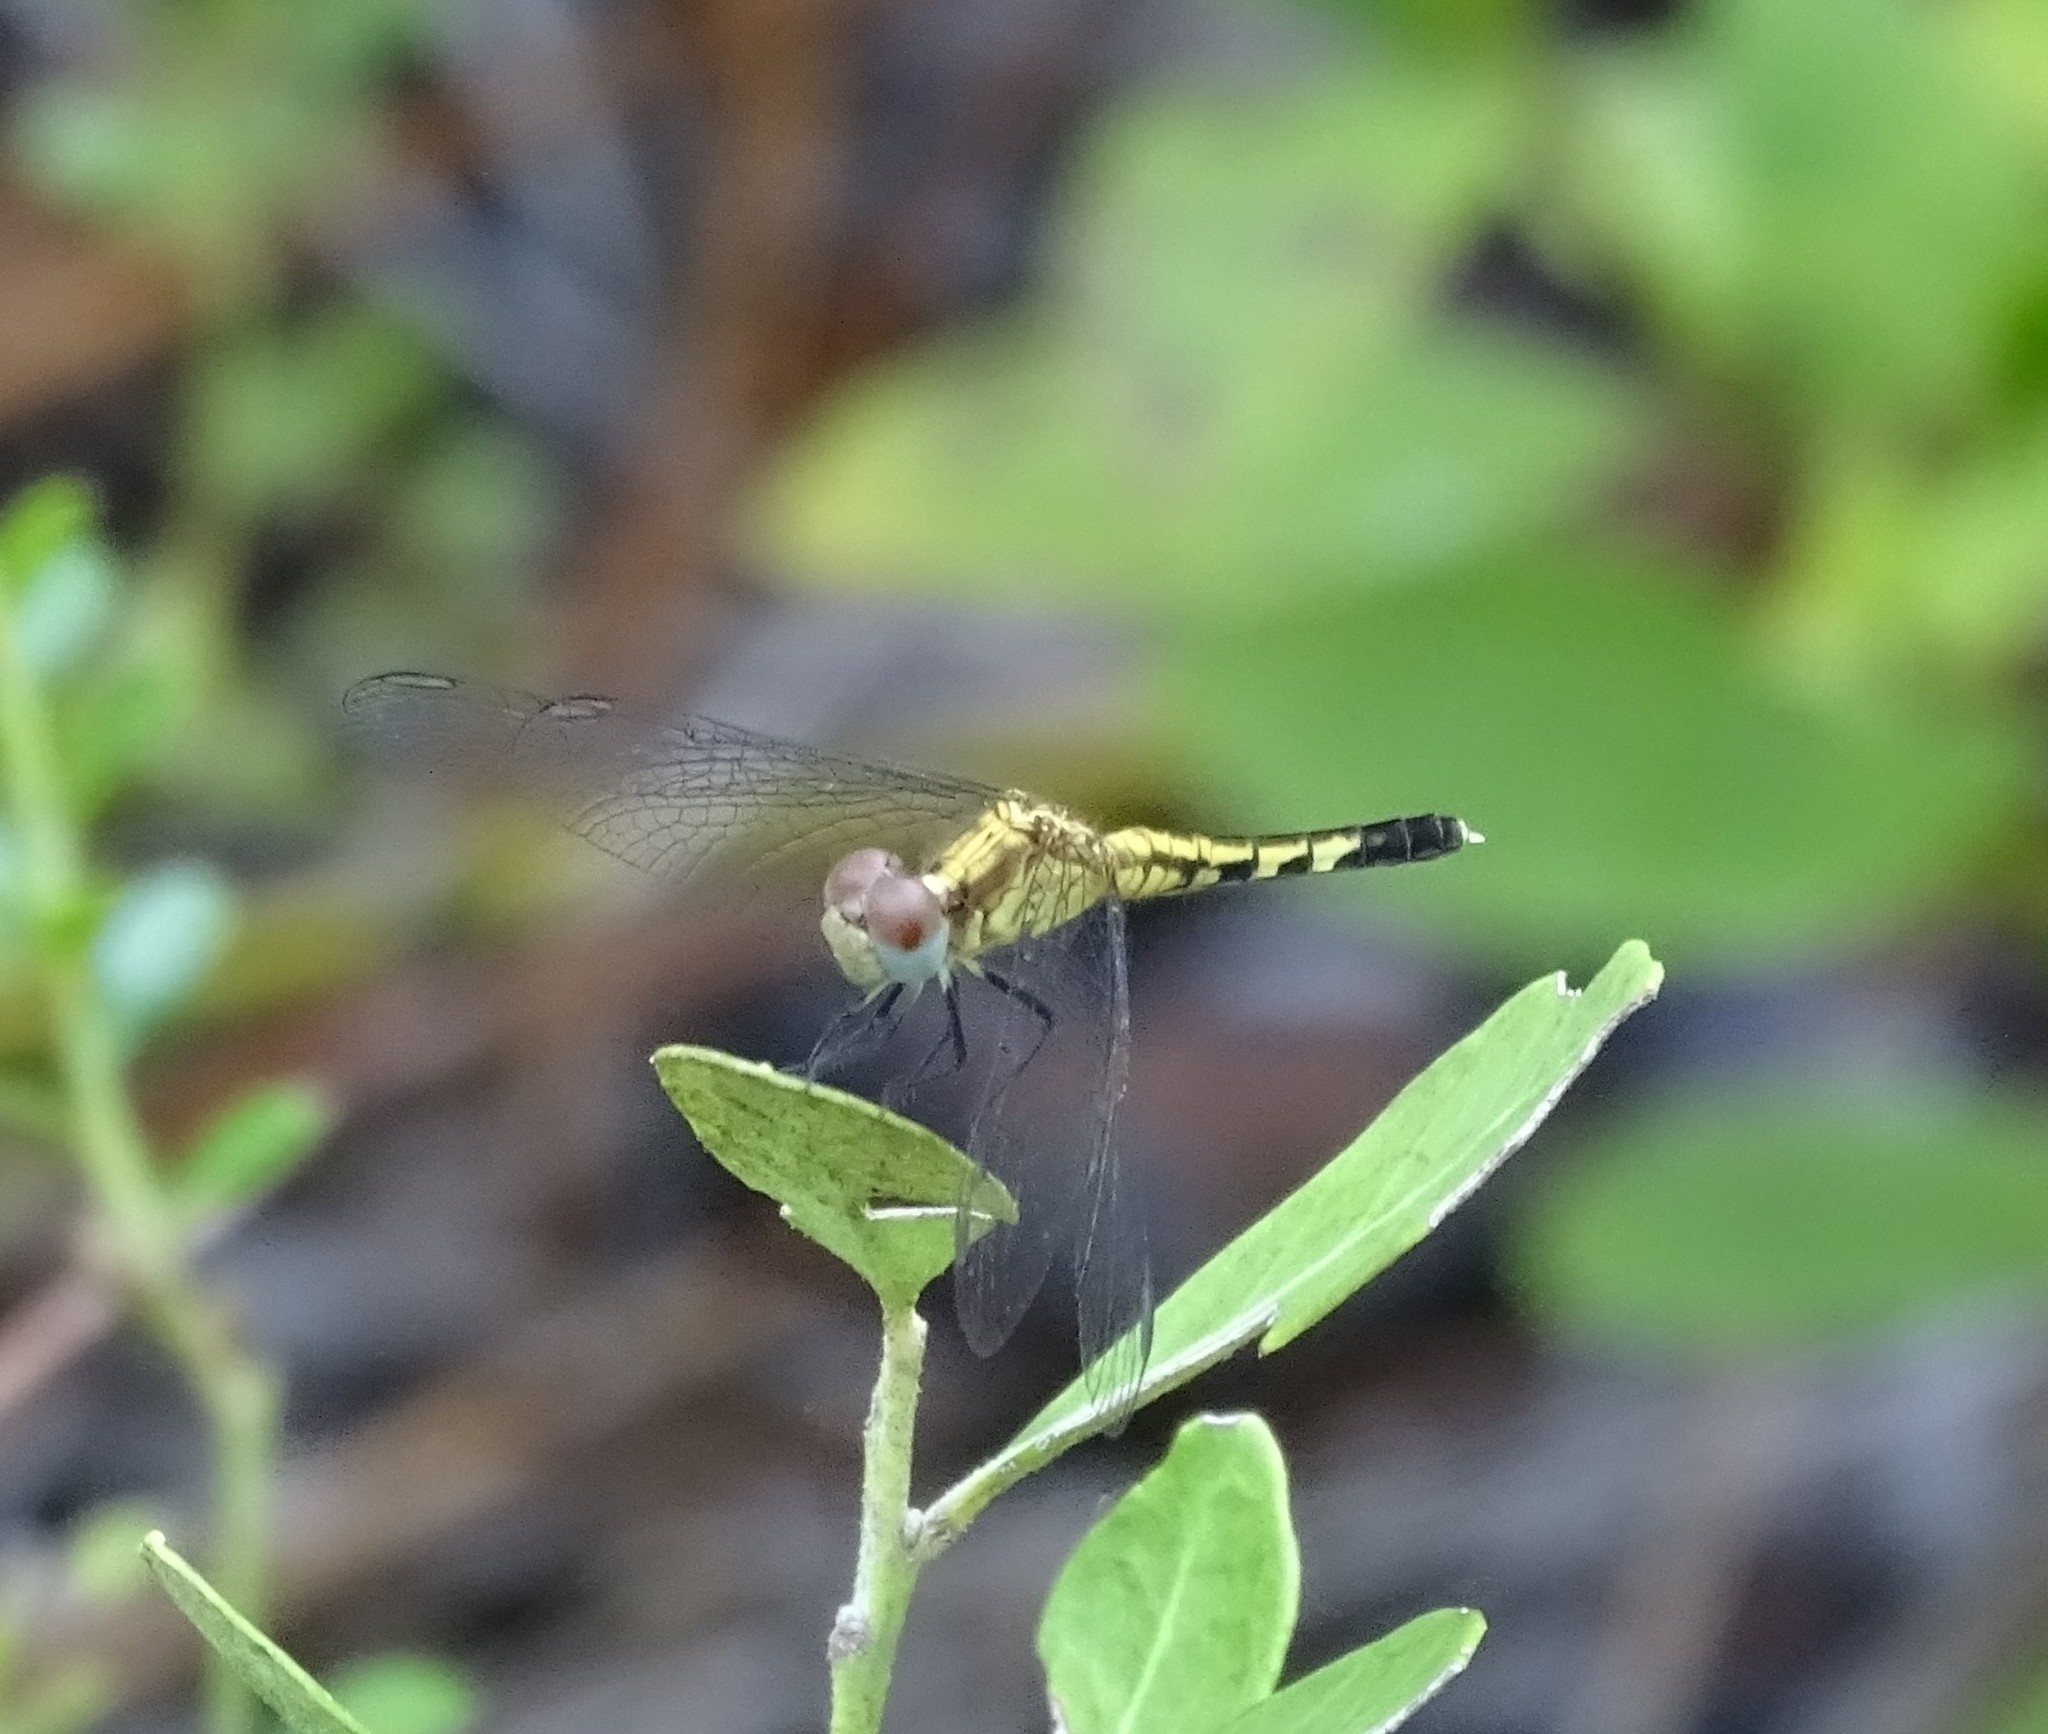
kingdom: Animalia
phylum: Arthropoda
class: Insecta
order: Odonata
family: Libellulidae
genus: Erythrodiplax
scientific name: Erythrodiplax minuscula
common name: Little blue dragonlet
